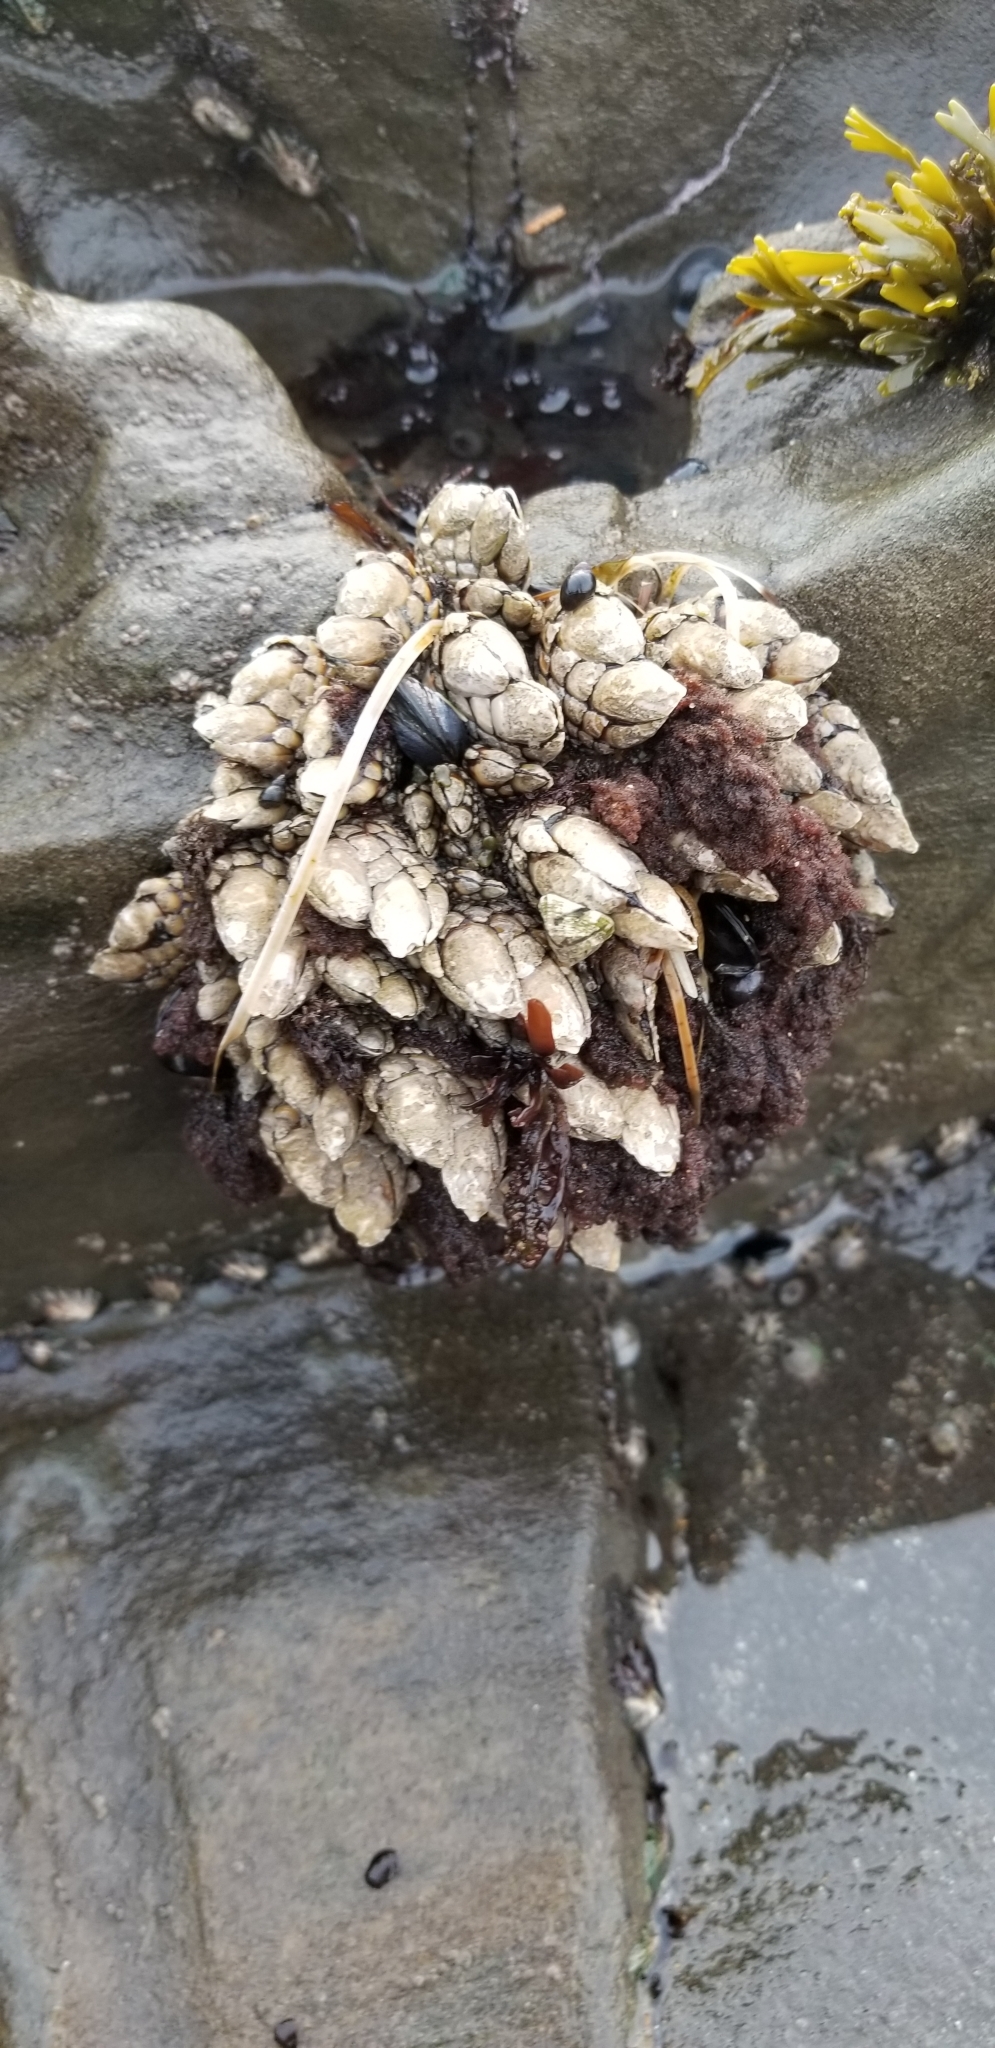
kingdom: Animalia
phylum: Arthropoda
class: Maxillopoda
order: Pedunculata
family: Pollicipedidae
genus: Pollicipes
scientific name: Pollicipes polymerus
